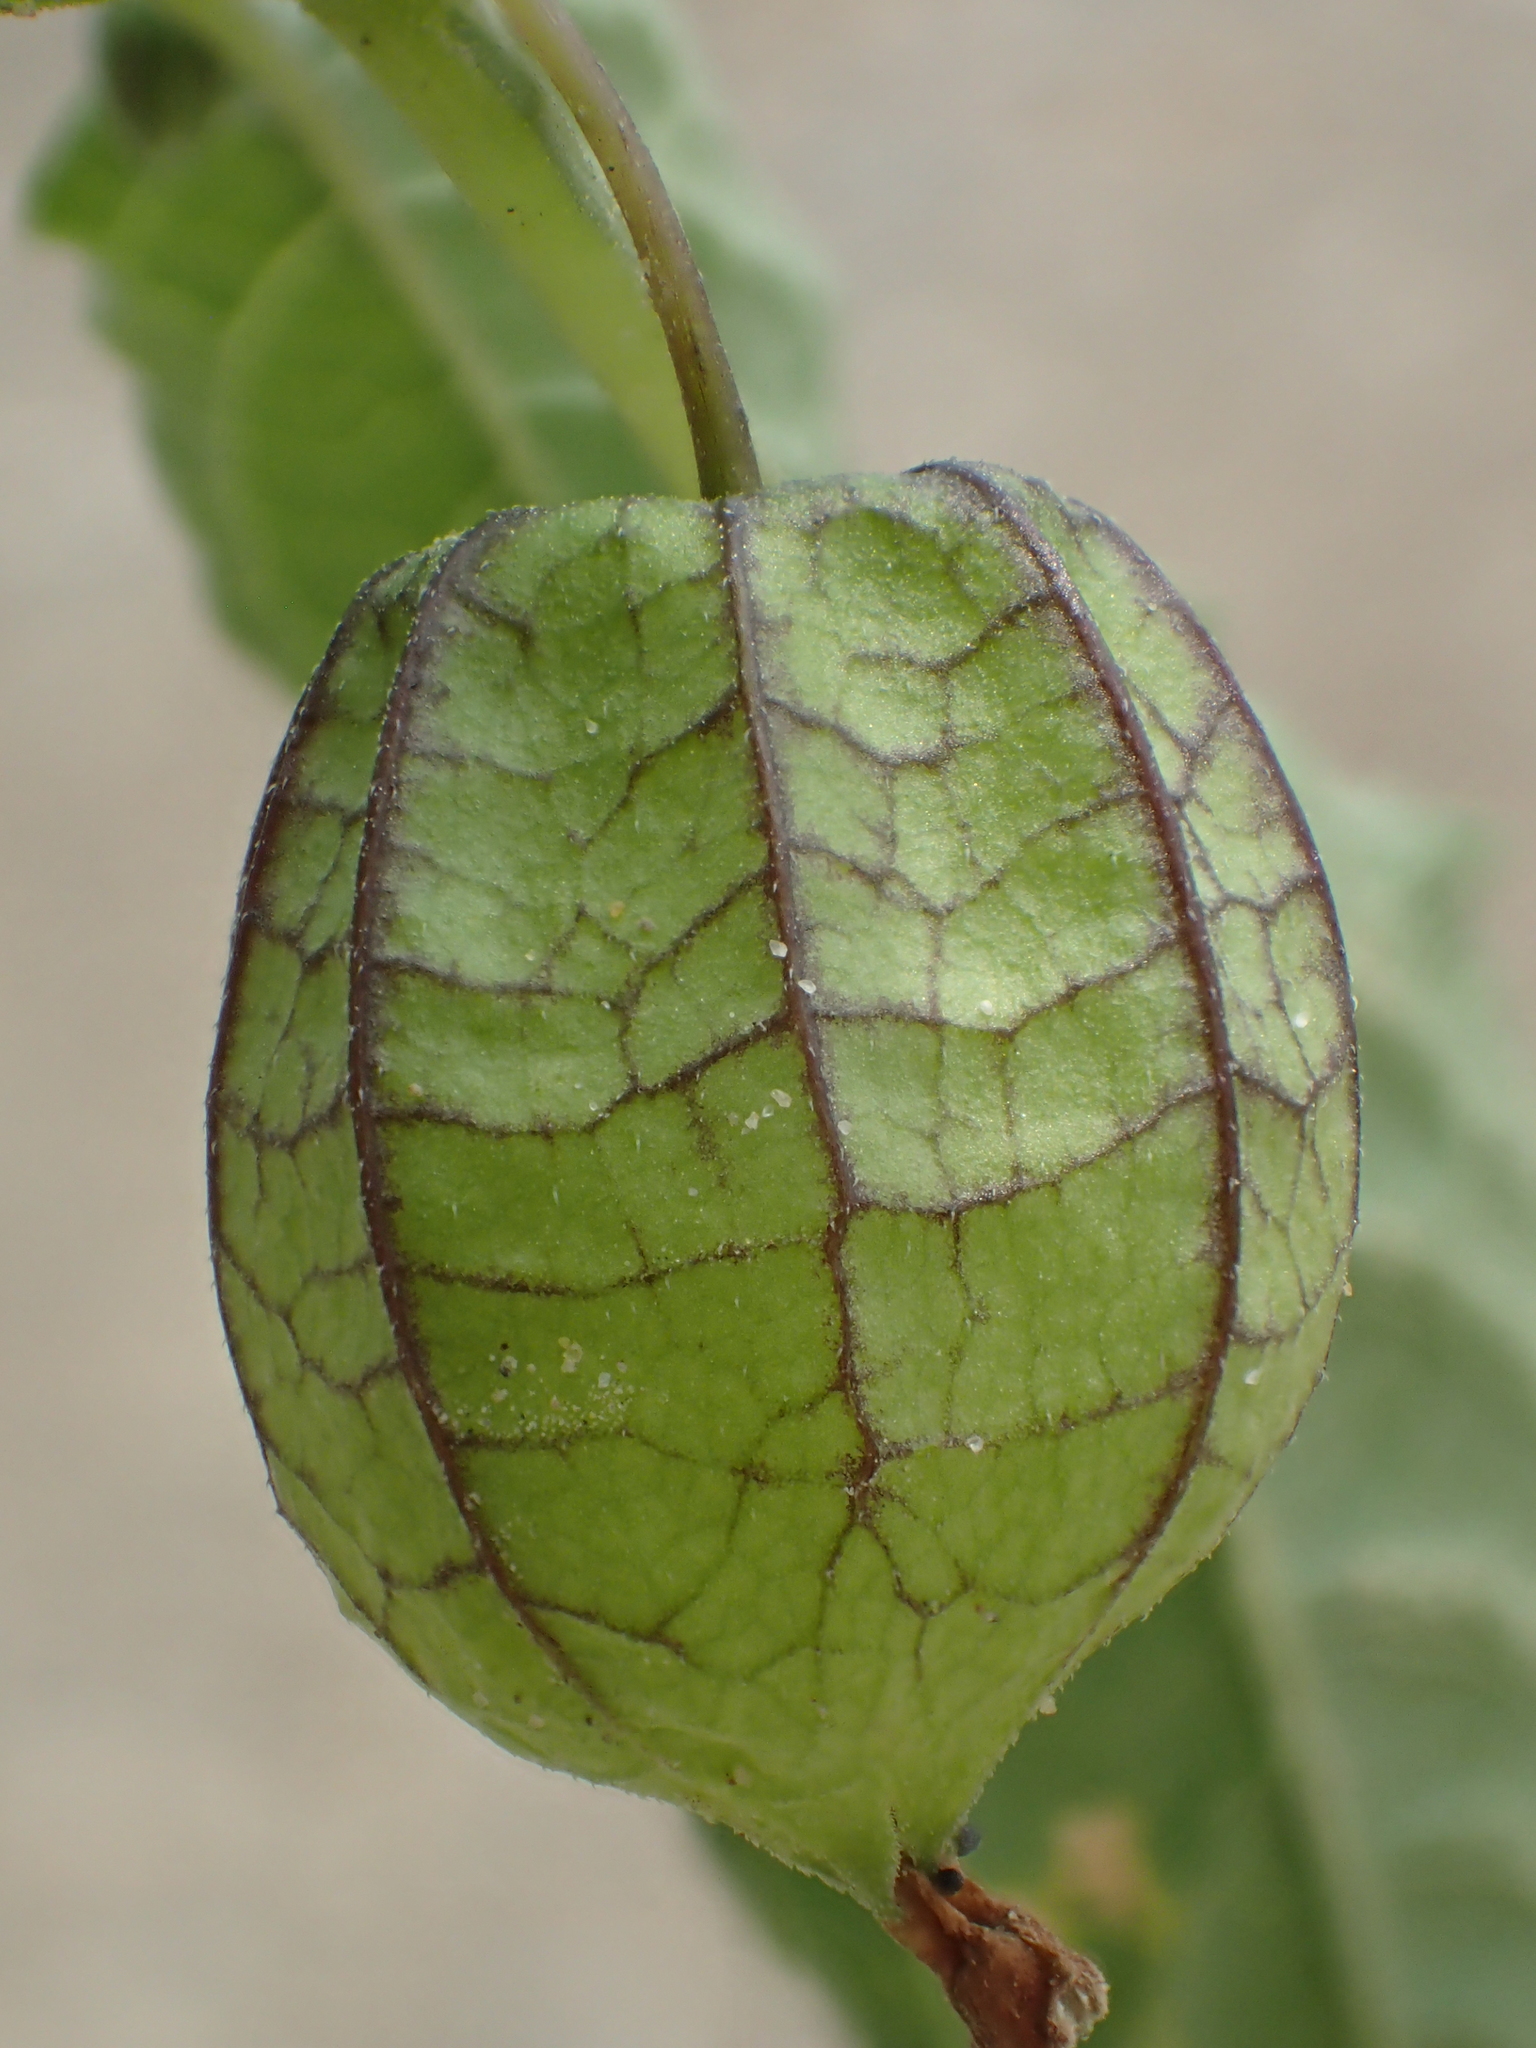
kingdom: Plantae
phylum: Tracheophyta
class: Magnoliopsida
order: Solanales
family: Solanaceae
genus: Physalis
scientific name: Physalis angulata
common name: Angular winter-cherry
